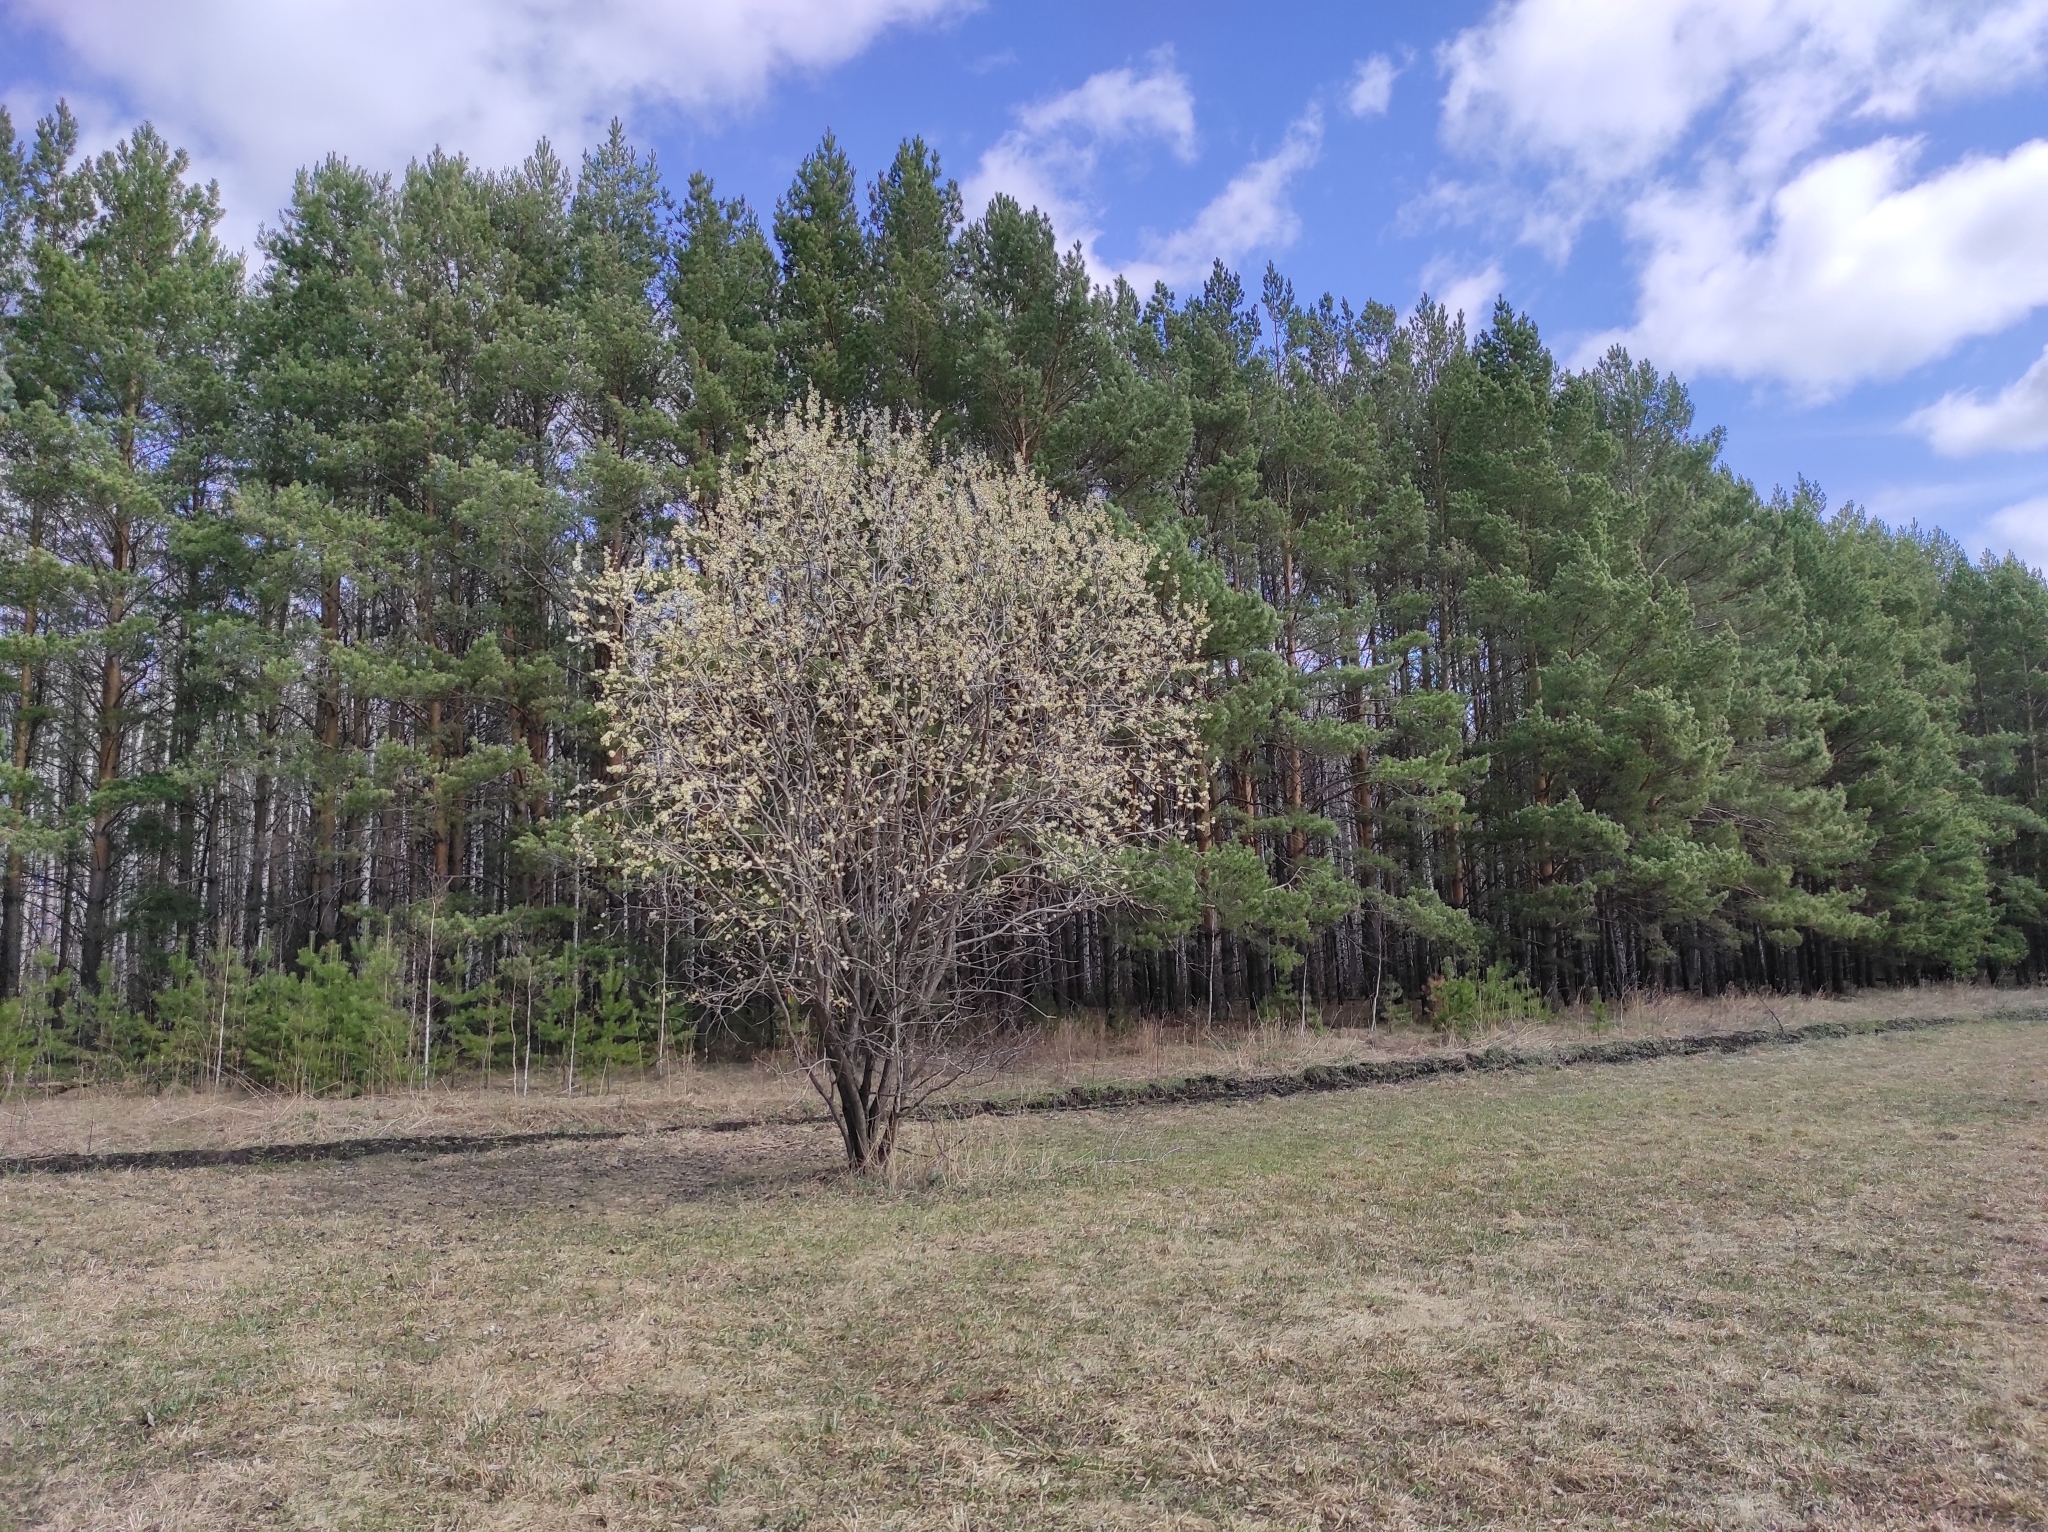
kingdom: Plantae
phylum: Tracheophyta
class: Pinopsida
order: Pinales
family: Pinaceae
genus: Pinus
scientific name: Pinus sylvestris
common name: Scots pine
